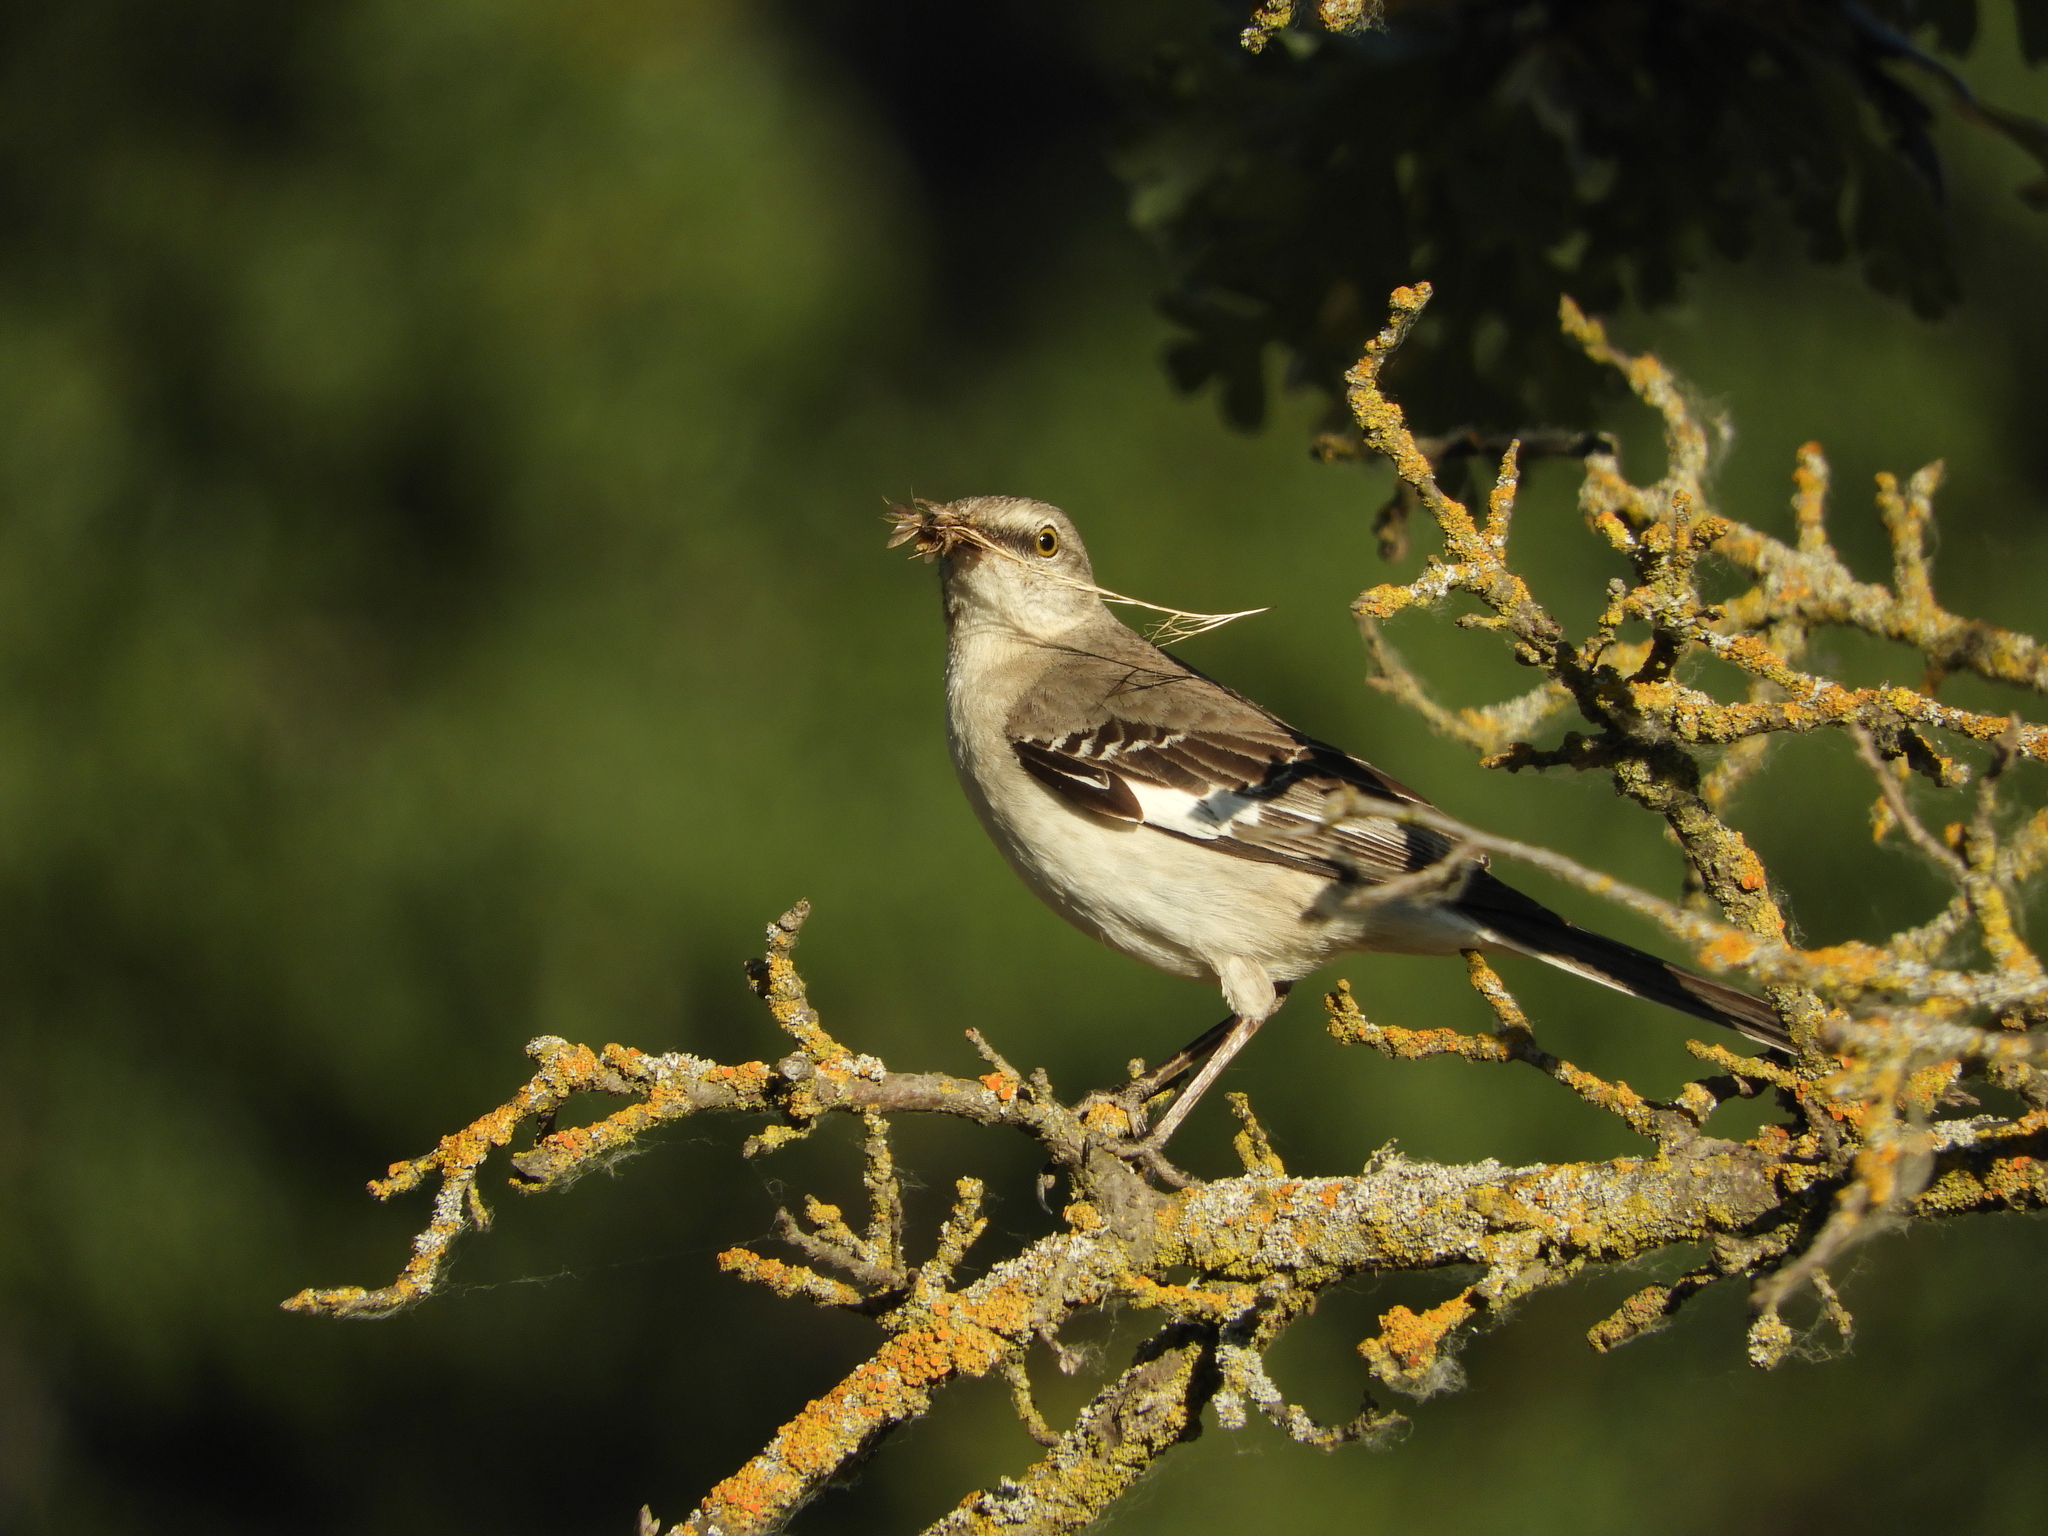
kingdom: Animalia
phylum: Chordata
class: Aves
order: Passeriformes
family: Mimidae
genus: Mimus
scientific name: Mimus polyglottos
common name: Northern mockingbird
